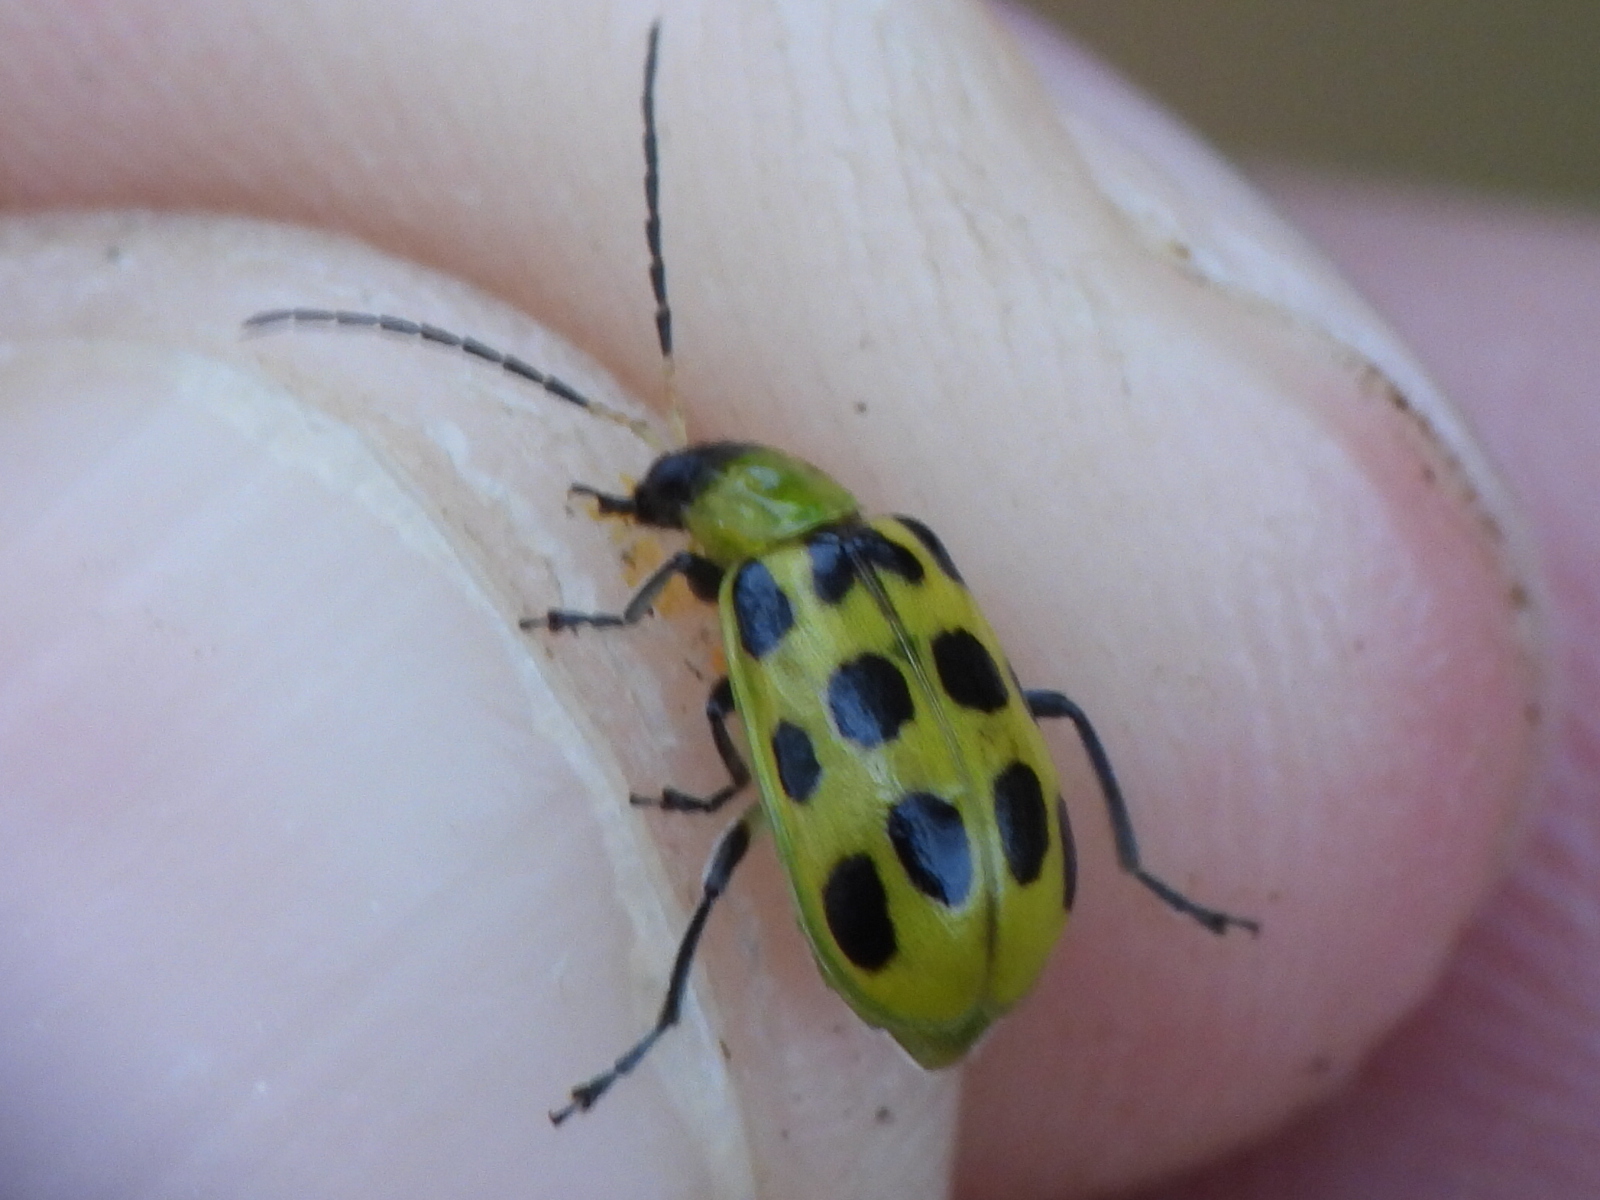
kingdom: Animalia
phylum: Arthropoda
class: Insecta
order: Coleoptera
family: Chrysomelidae
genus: Diabrotica
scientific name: Diabrotica undecimpunctata
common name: Spotted cucumber beetle
